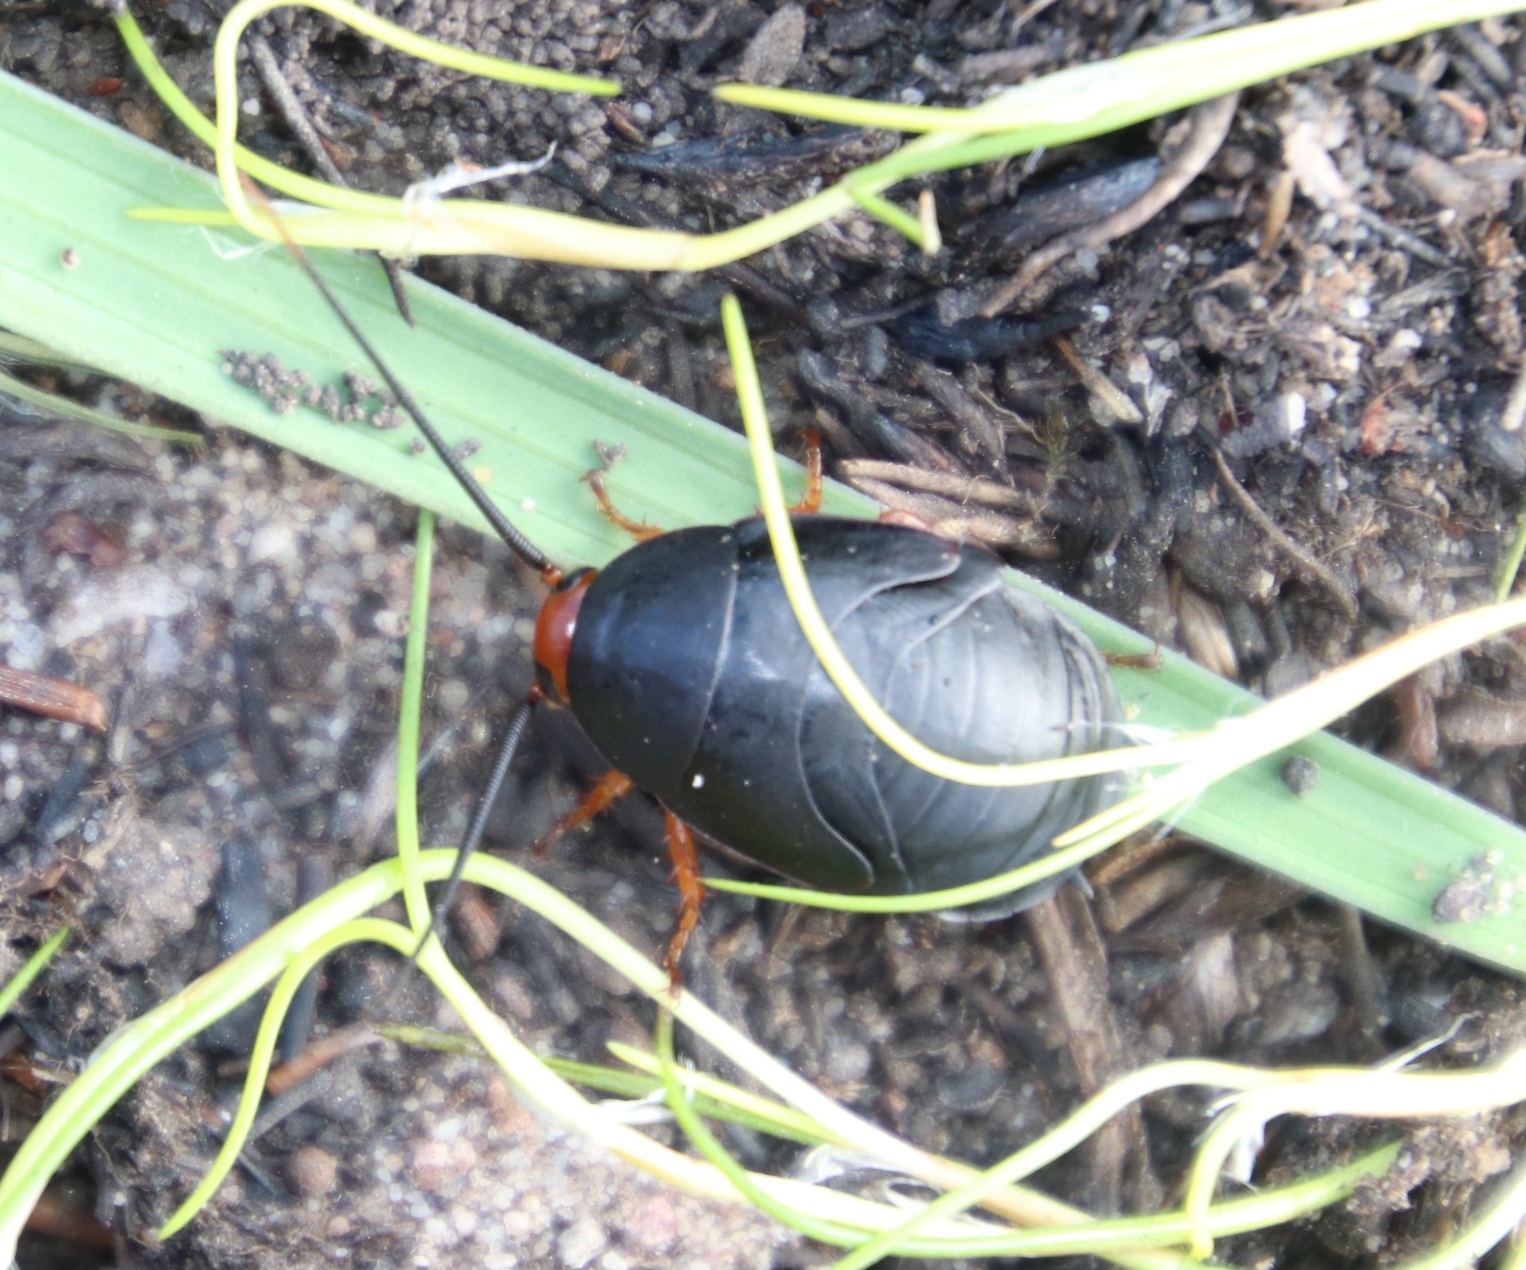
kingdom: Animalia
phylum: Arthropoda
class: Insecta
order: Blattodea
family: Blattidae
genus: Deropeltis
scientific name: Deropeltis erythrocephala
